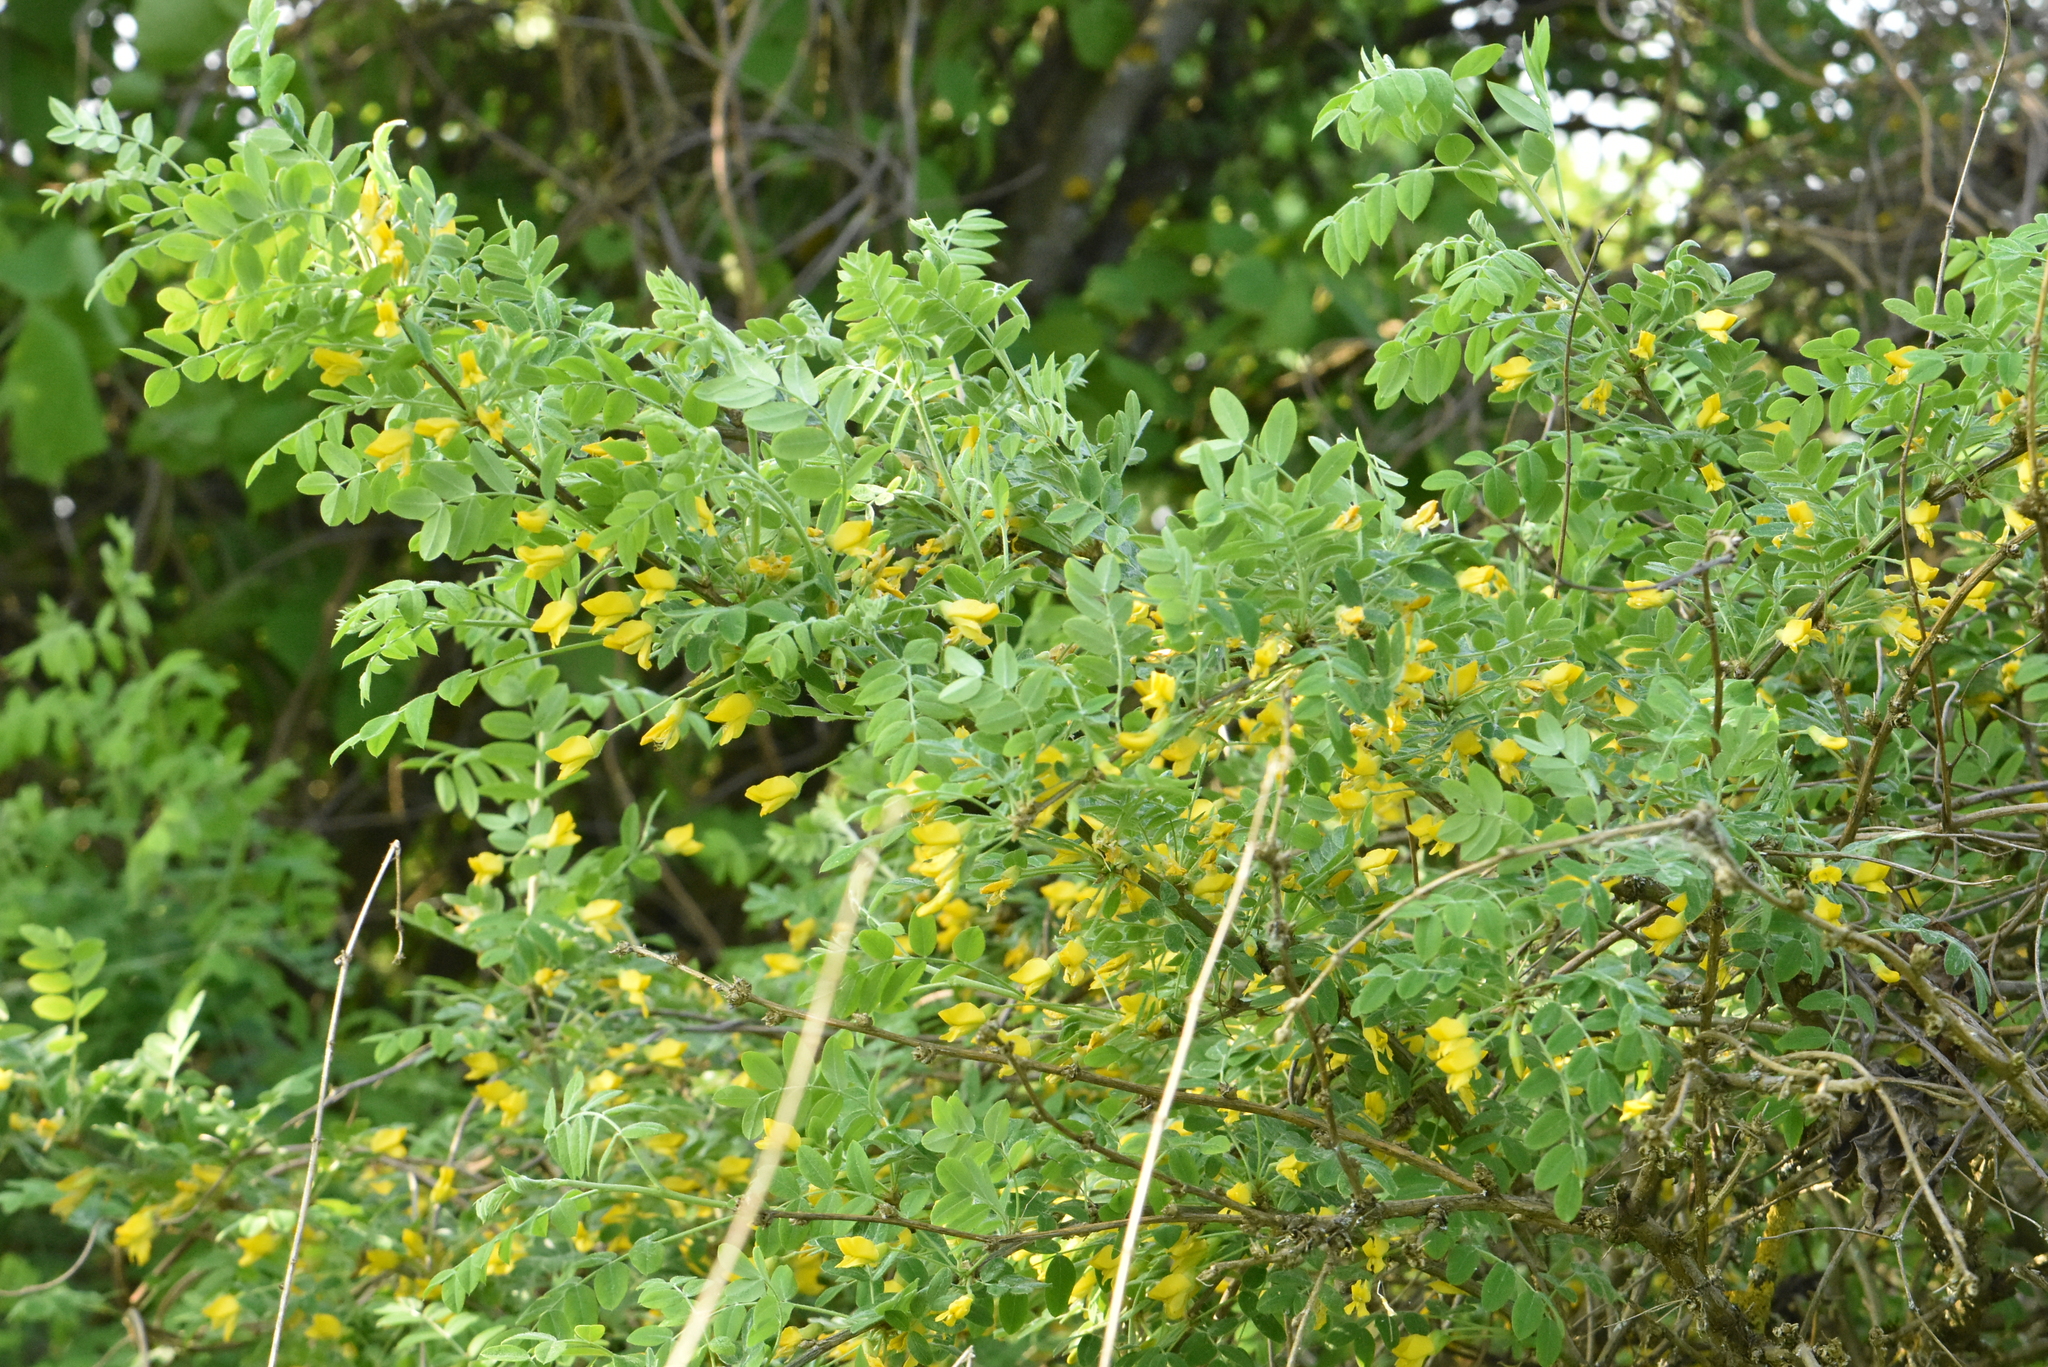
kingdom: Plantae
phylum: Tracheophyta
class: Magnoliopsida
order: Fabales
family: Fabaceae
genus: Caragana
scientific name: Caragana arborescens
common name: Siberian peashrub
